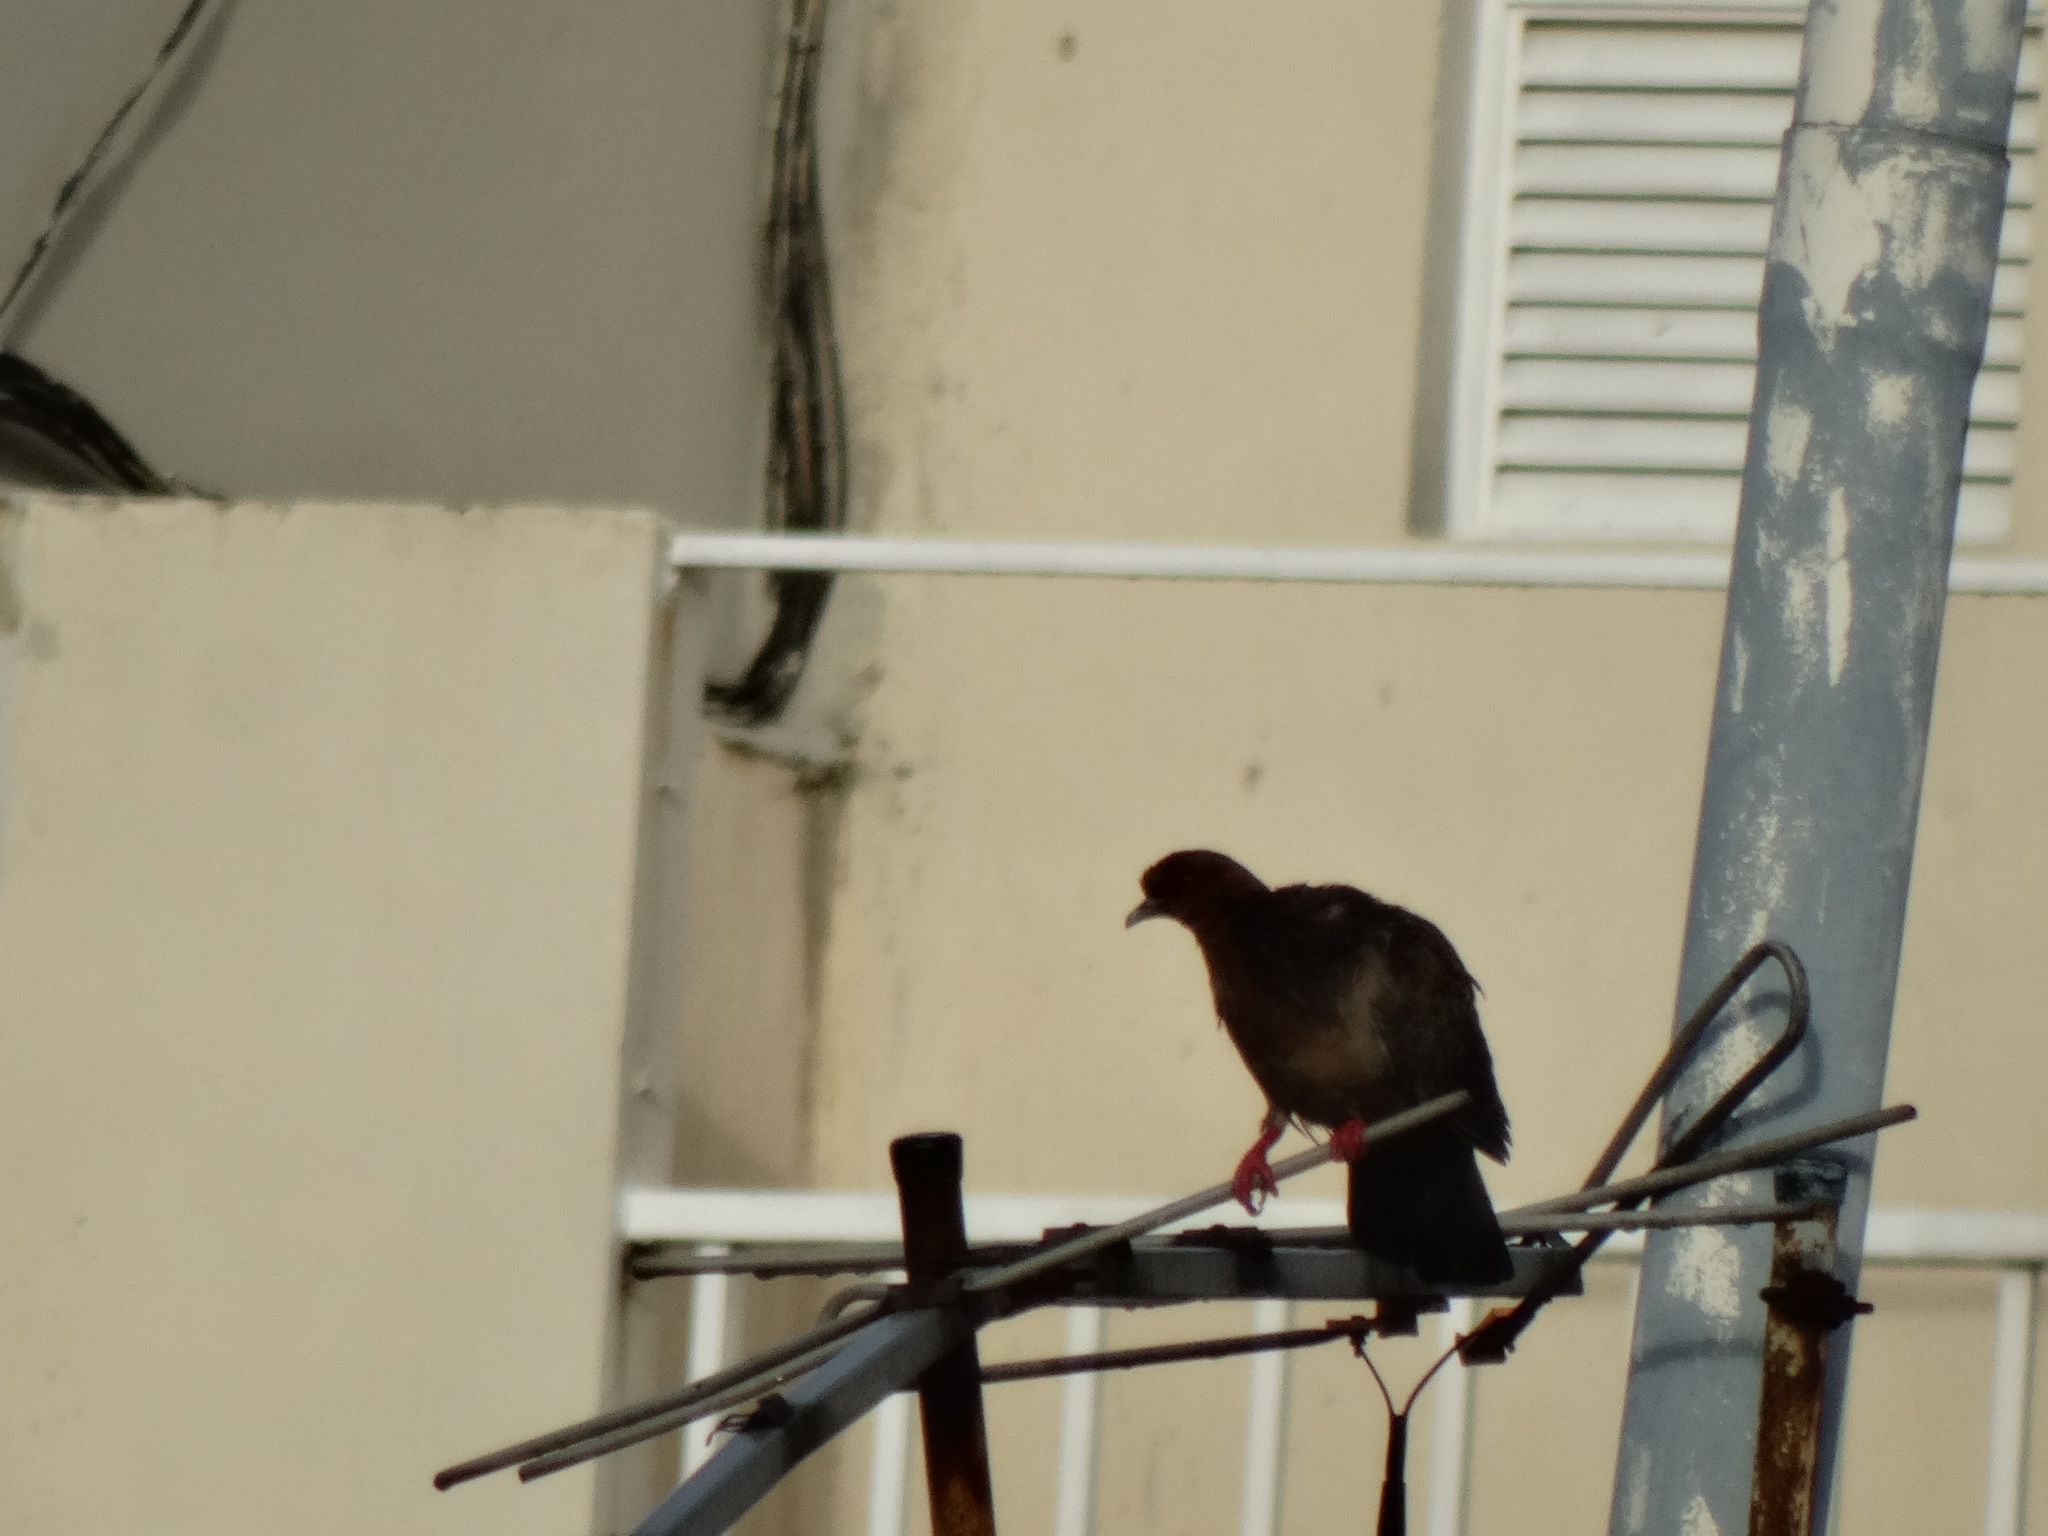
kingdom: Animalia
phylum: Chordata
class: Aves
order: Columbiformes
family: Columbidae
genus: Columba
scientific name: Columba livia
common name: Rock pigeon
